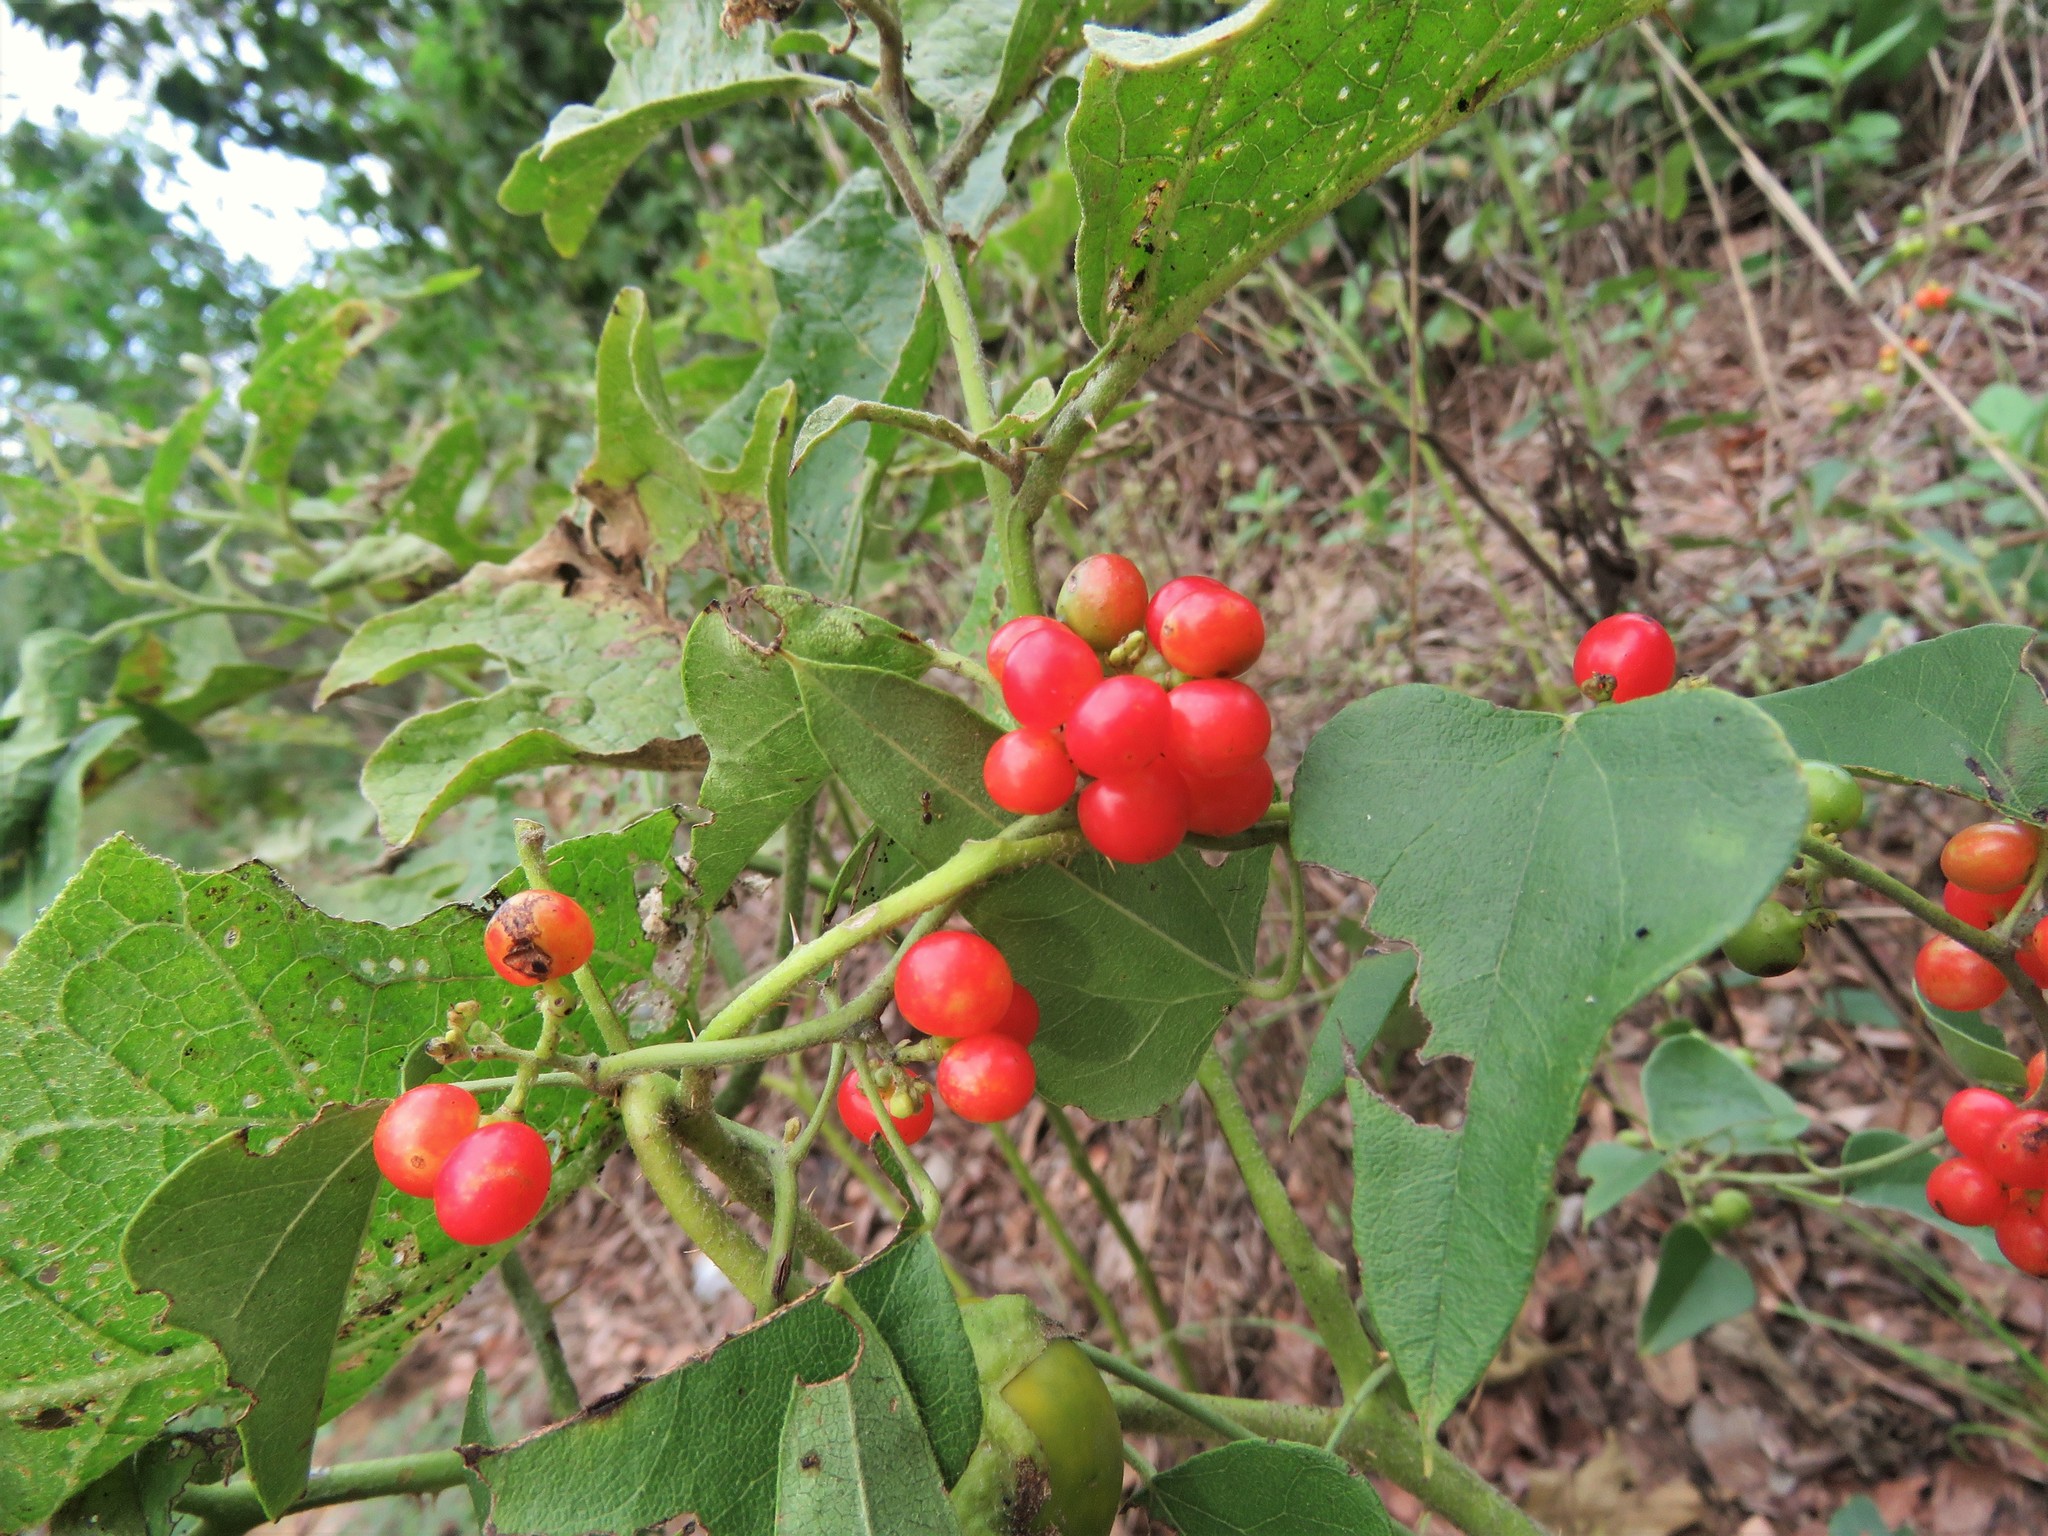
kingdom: Plantae
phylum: Tracheophyta
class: Magnoliopsida
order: Ranunculales
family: Menispermaceae
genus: Cocculus
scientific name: Cocculus carolinus
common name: Carolina moonseed
